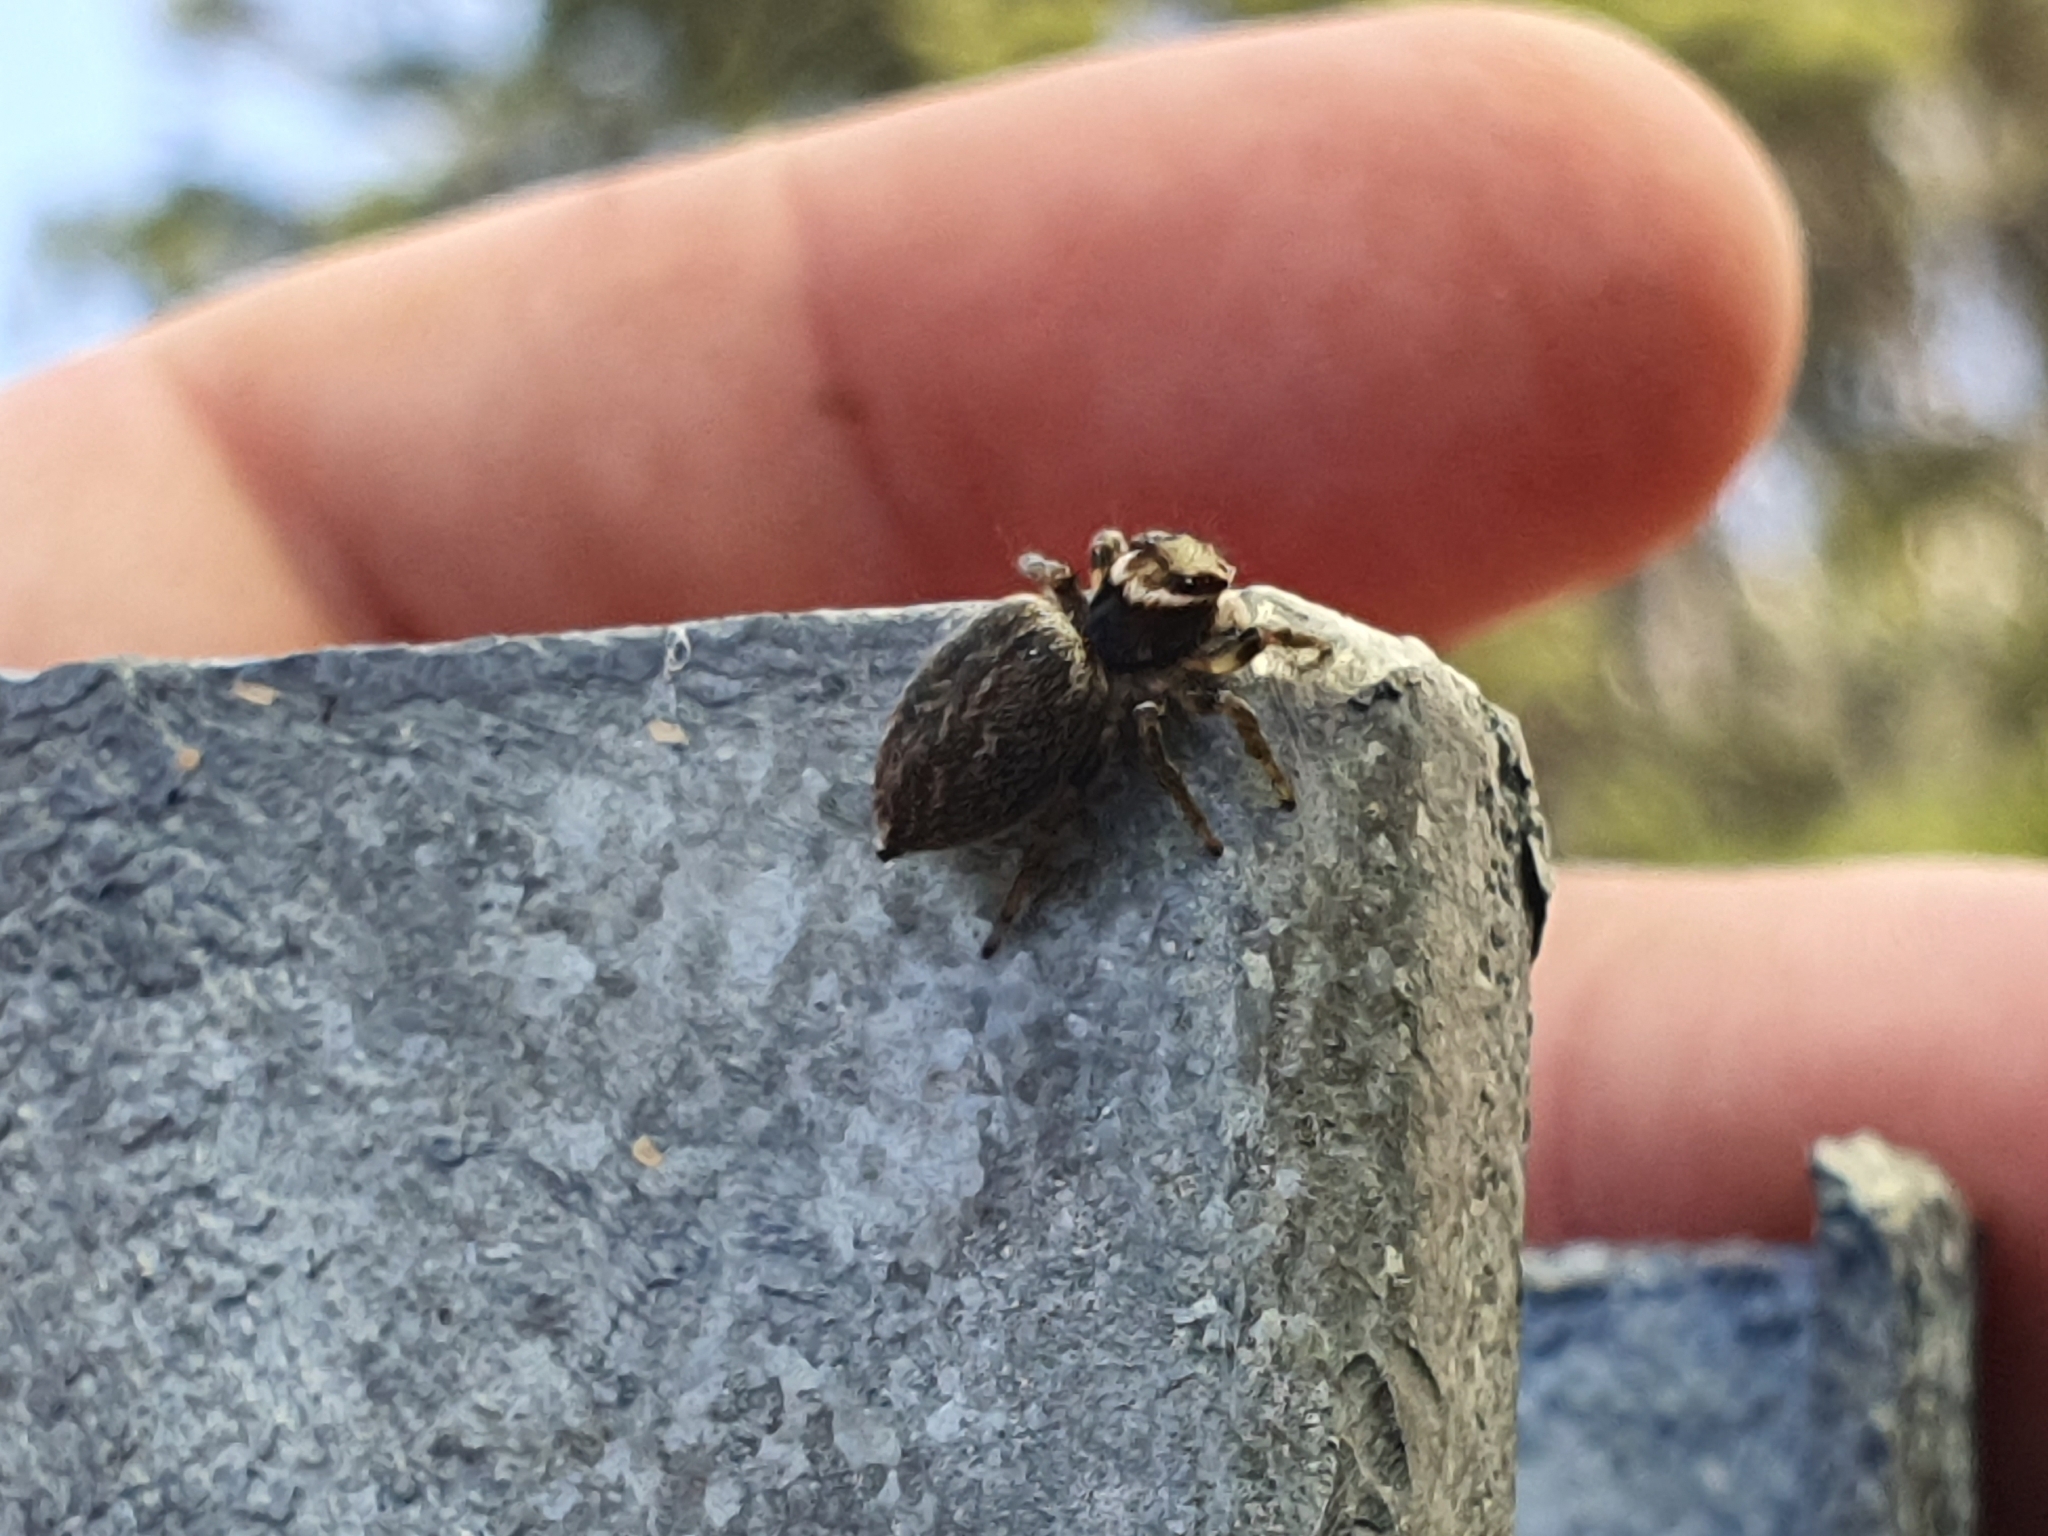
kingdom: Animalia
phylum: Arthropoda
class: Arachnida
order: Araneae
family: Salticidae
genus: Maratus
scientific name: Maratus griseus
